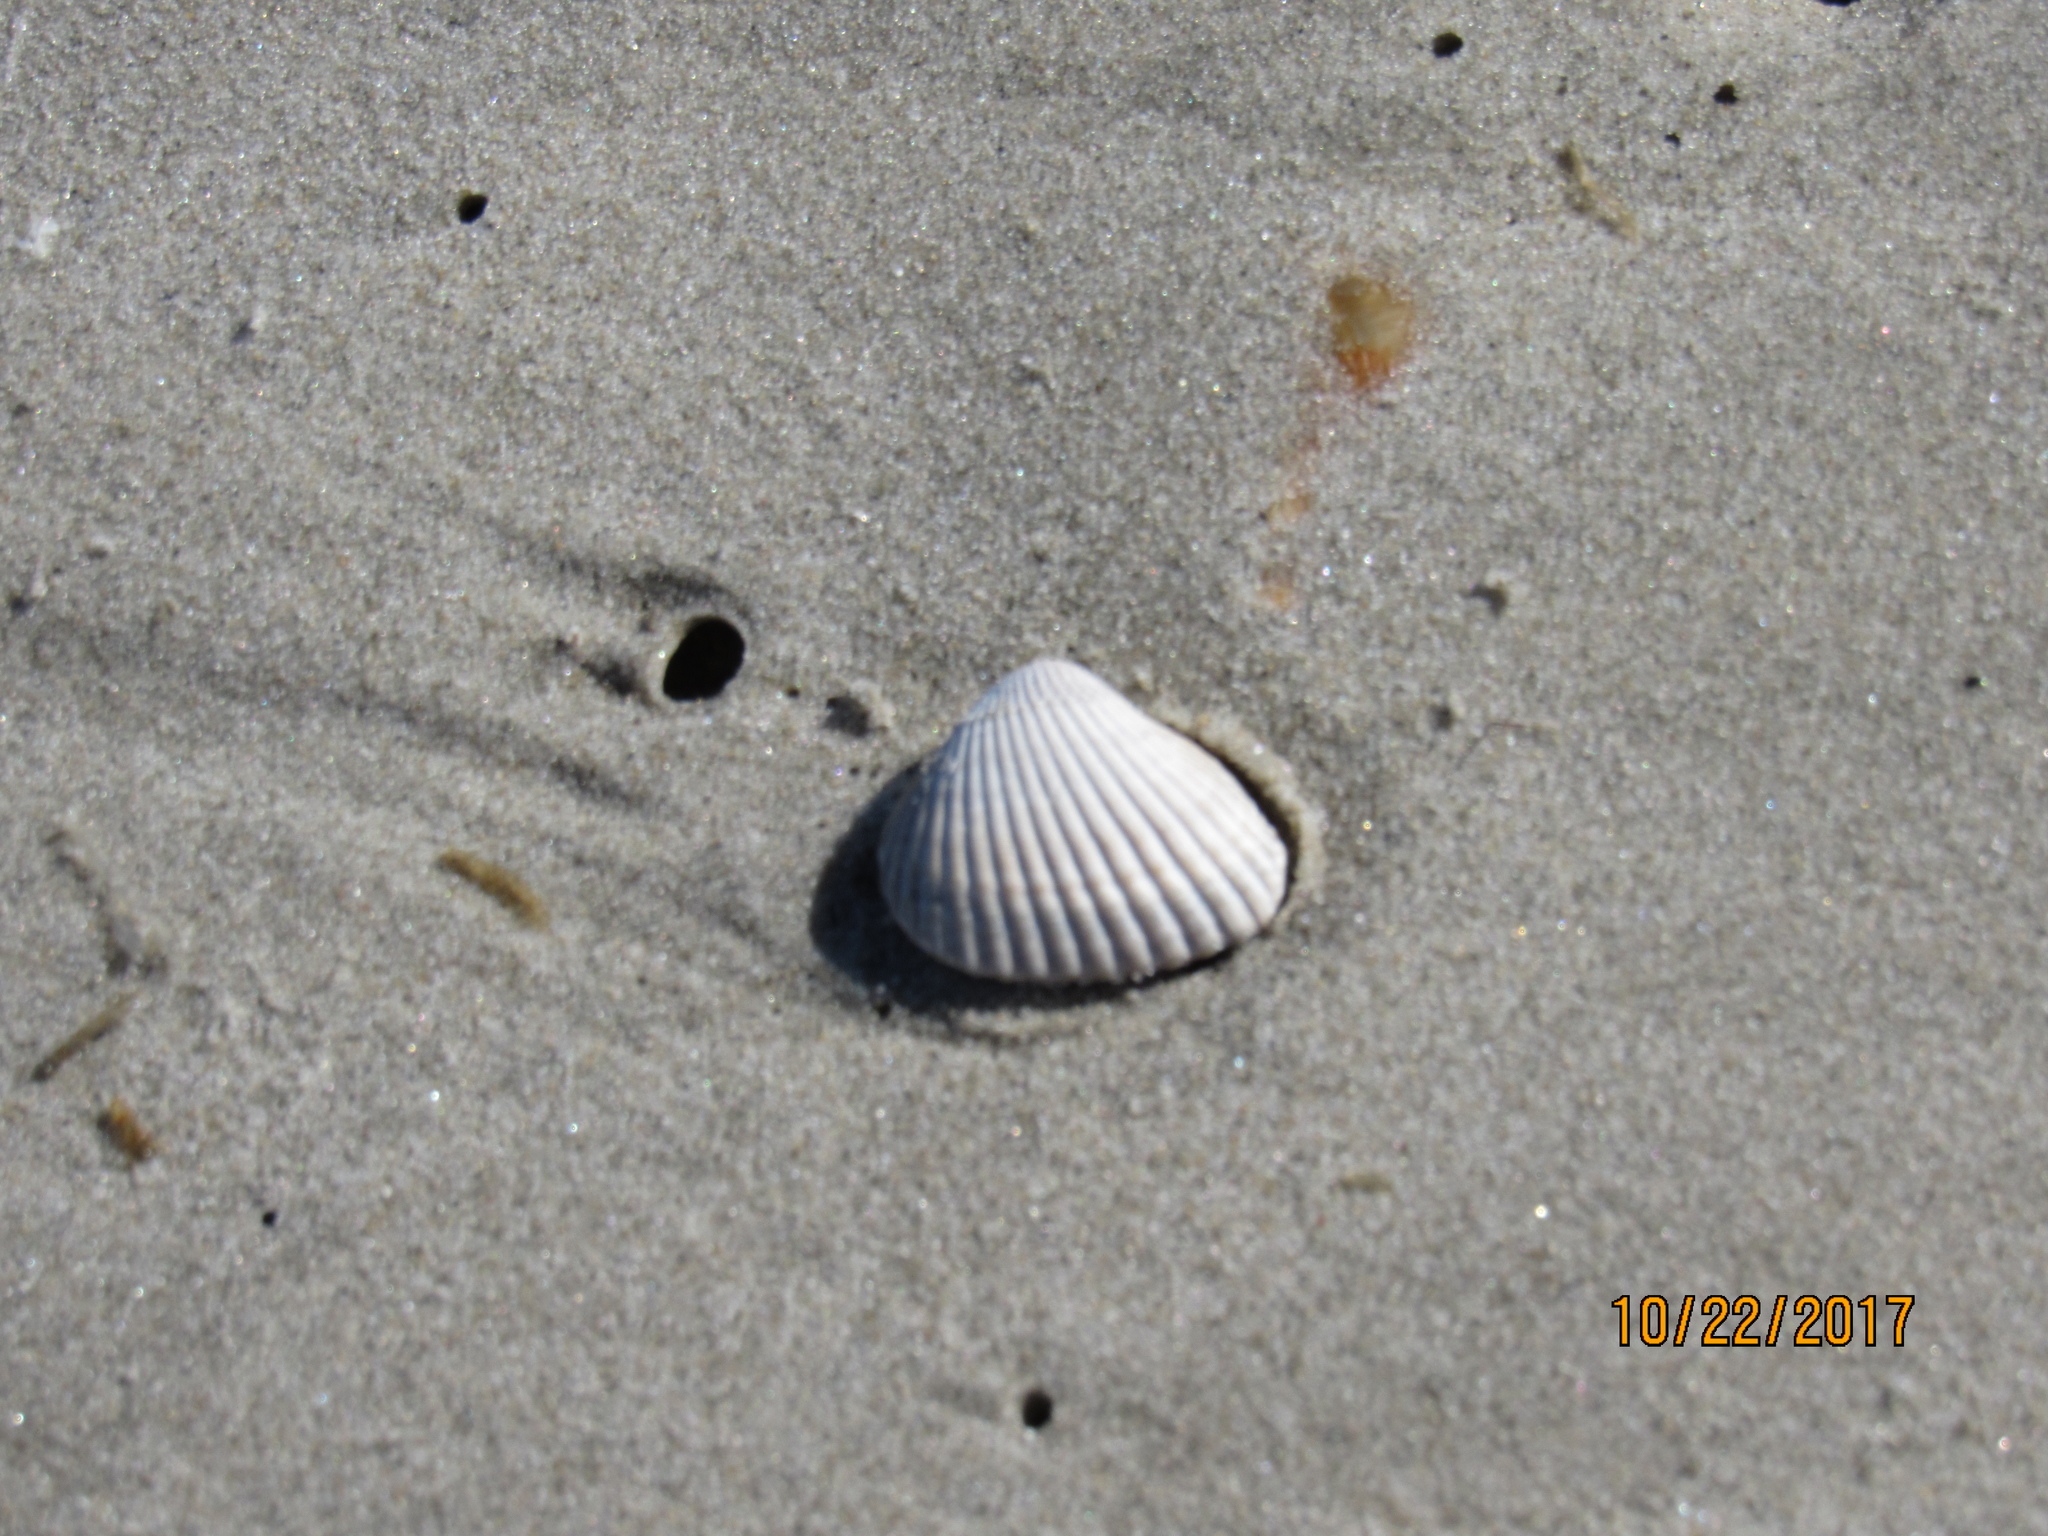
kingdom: Animalia
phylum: Mollusca
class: Bivalvia
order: Arcida
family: Noetiidae
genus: Noetia
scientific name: Noetia ponderosa
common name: Ponderous ark
